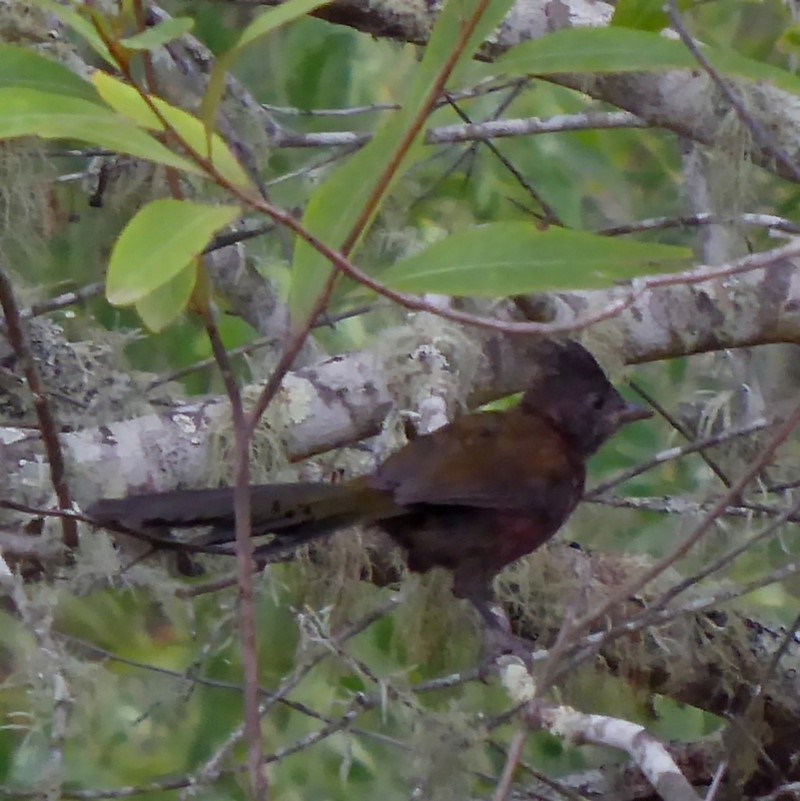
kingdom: Animalia
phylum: Chordata
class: Aves
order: Passeriformes
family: Psophodidae
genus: Psophodes
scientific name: Psophodes olivaceus
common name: Eastern whipbird
